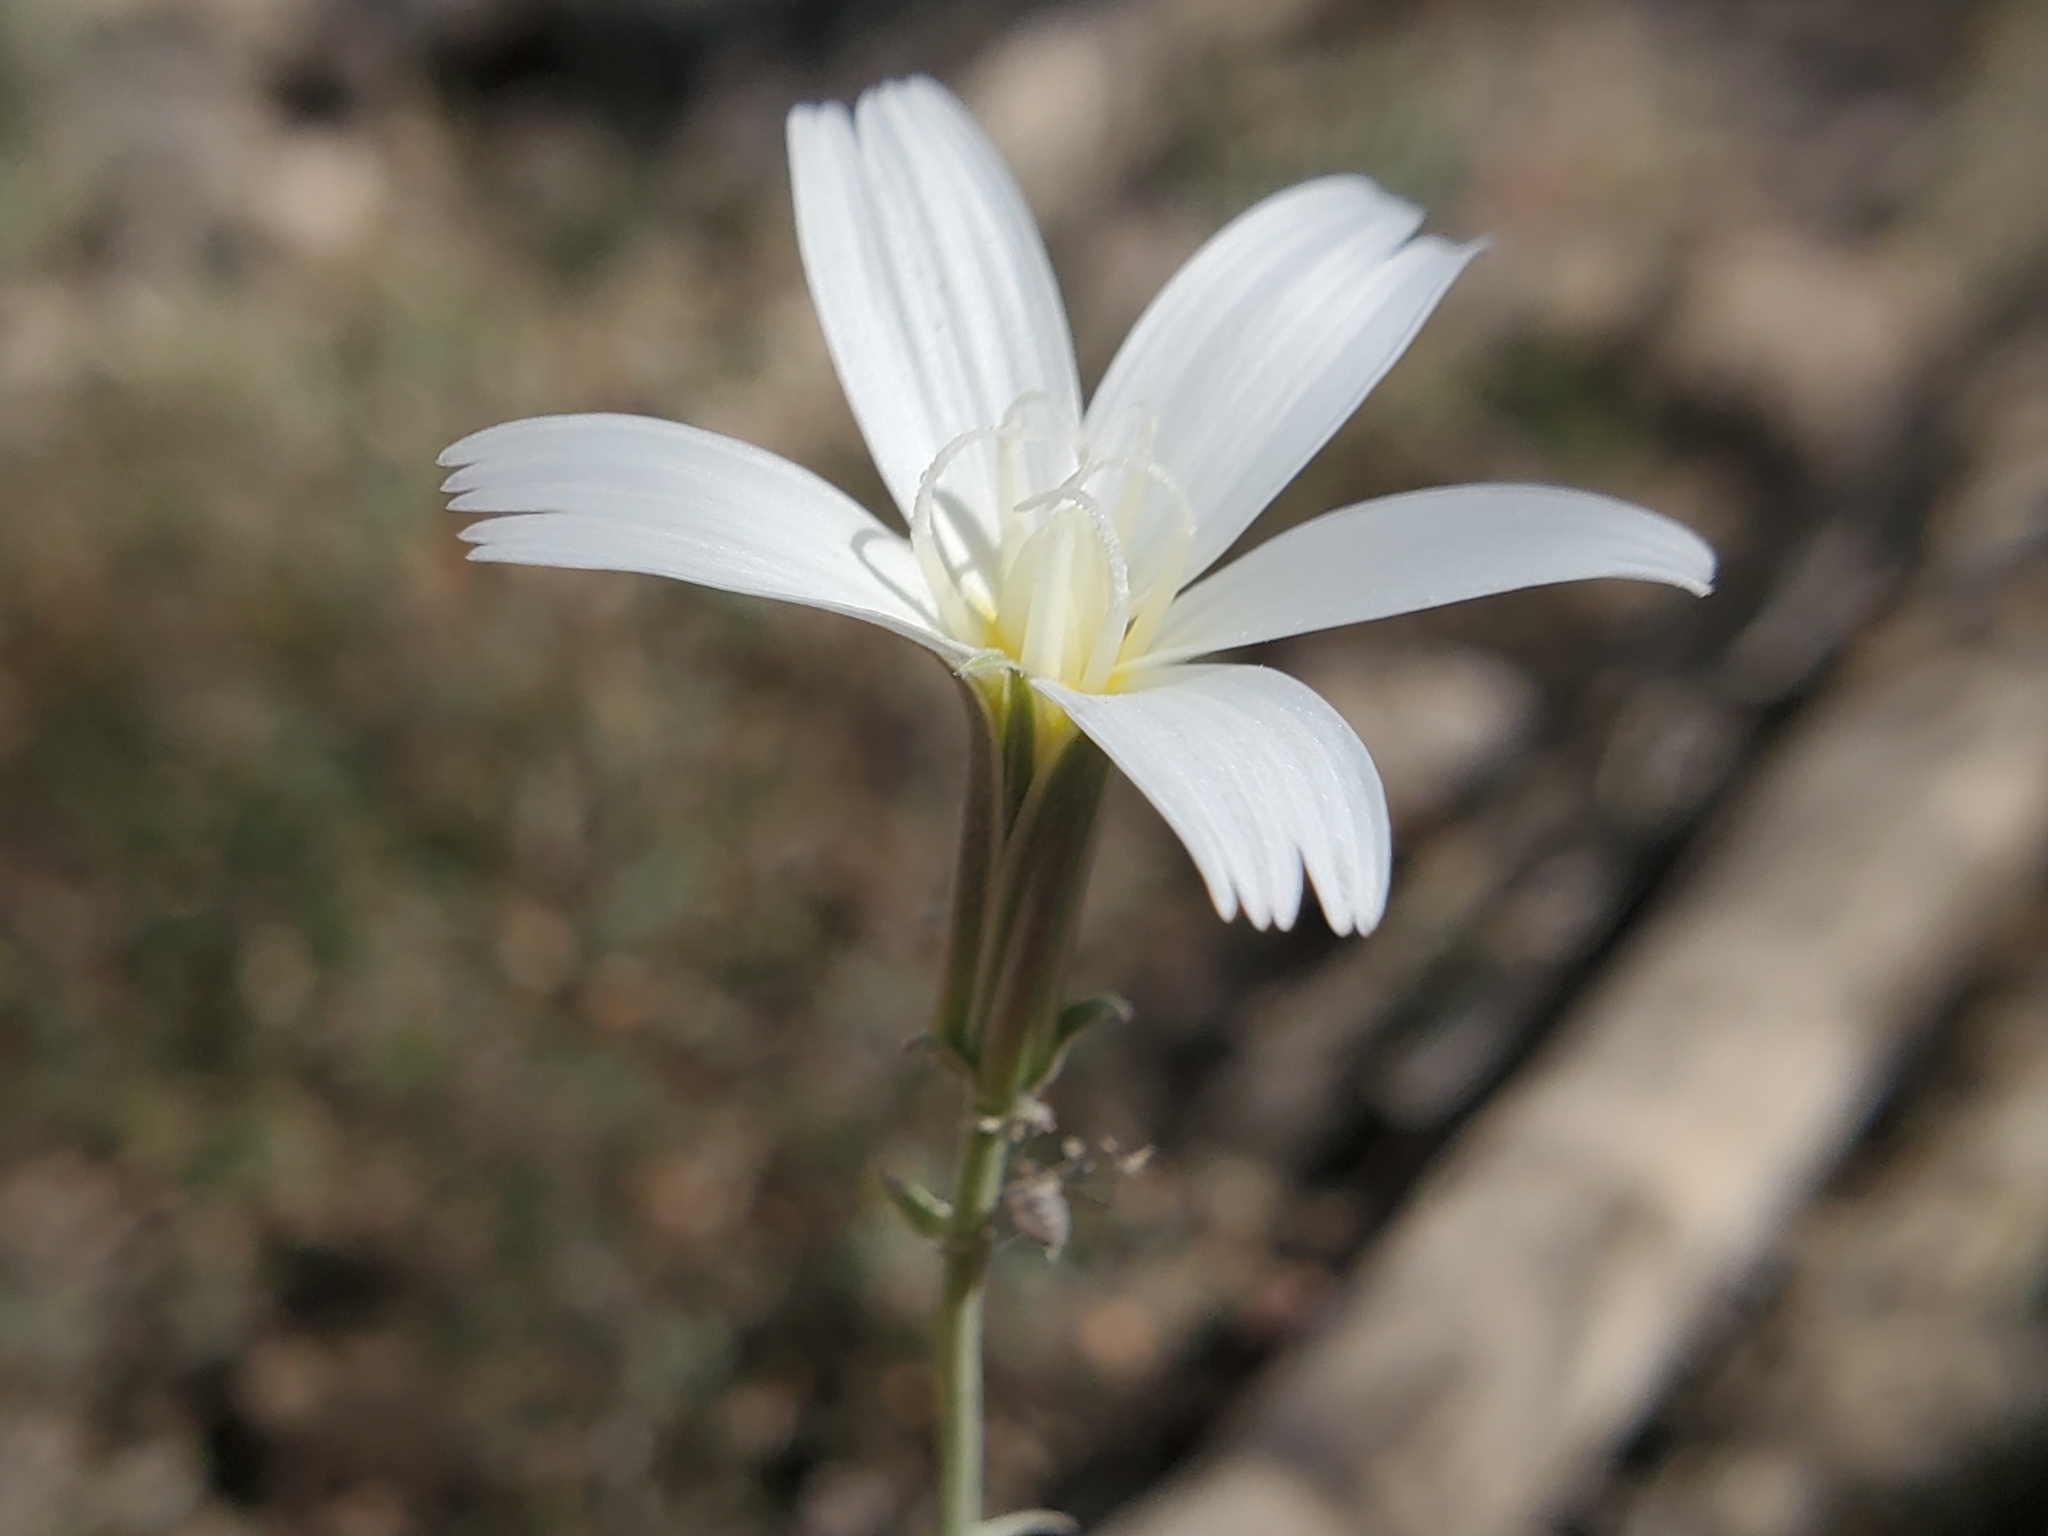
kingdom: Plantae
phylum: Tracheophyta
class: Magnoliopsida
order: Asterales
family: Asteraceae
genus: Rafinesquia
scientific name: Rafinesquia neomexicana
